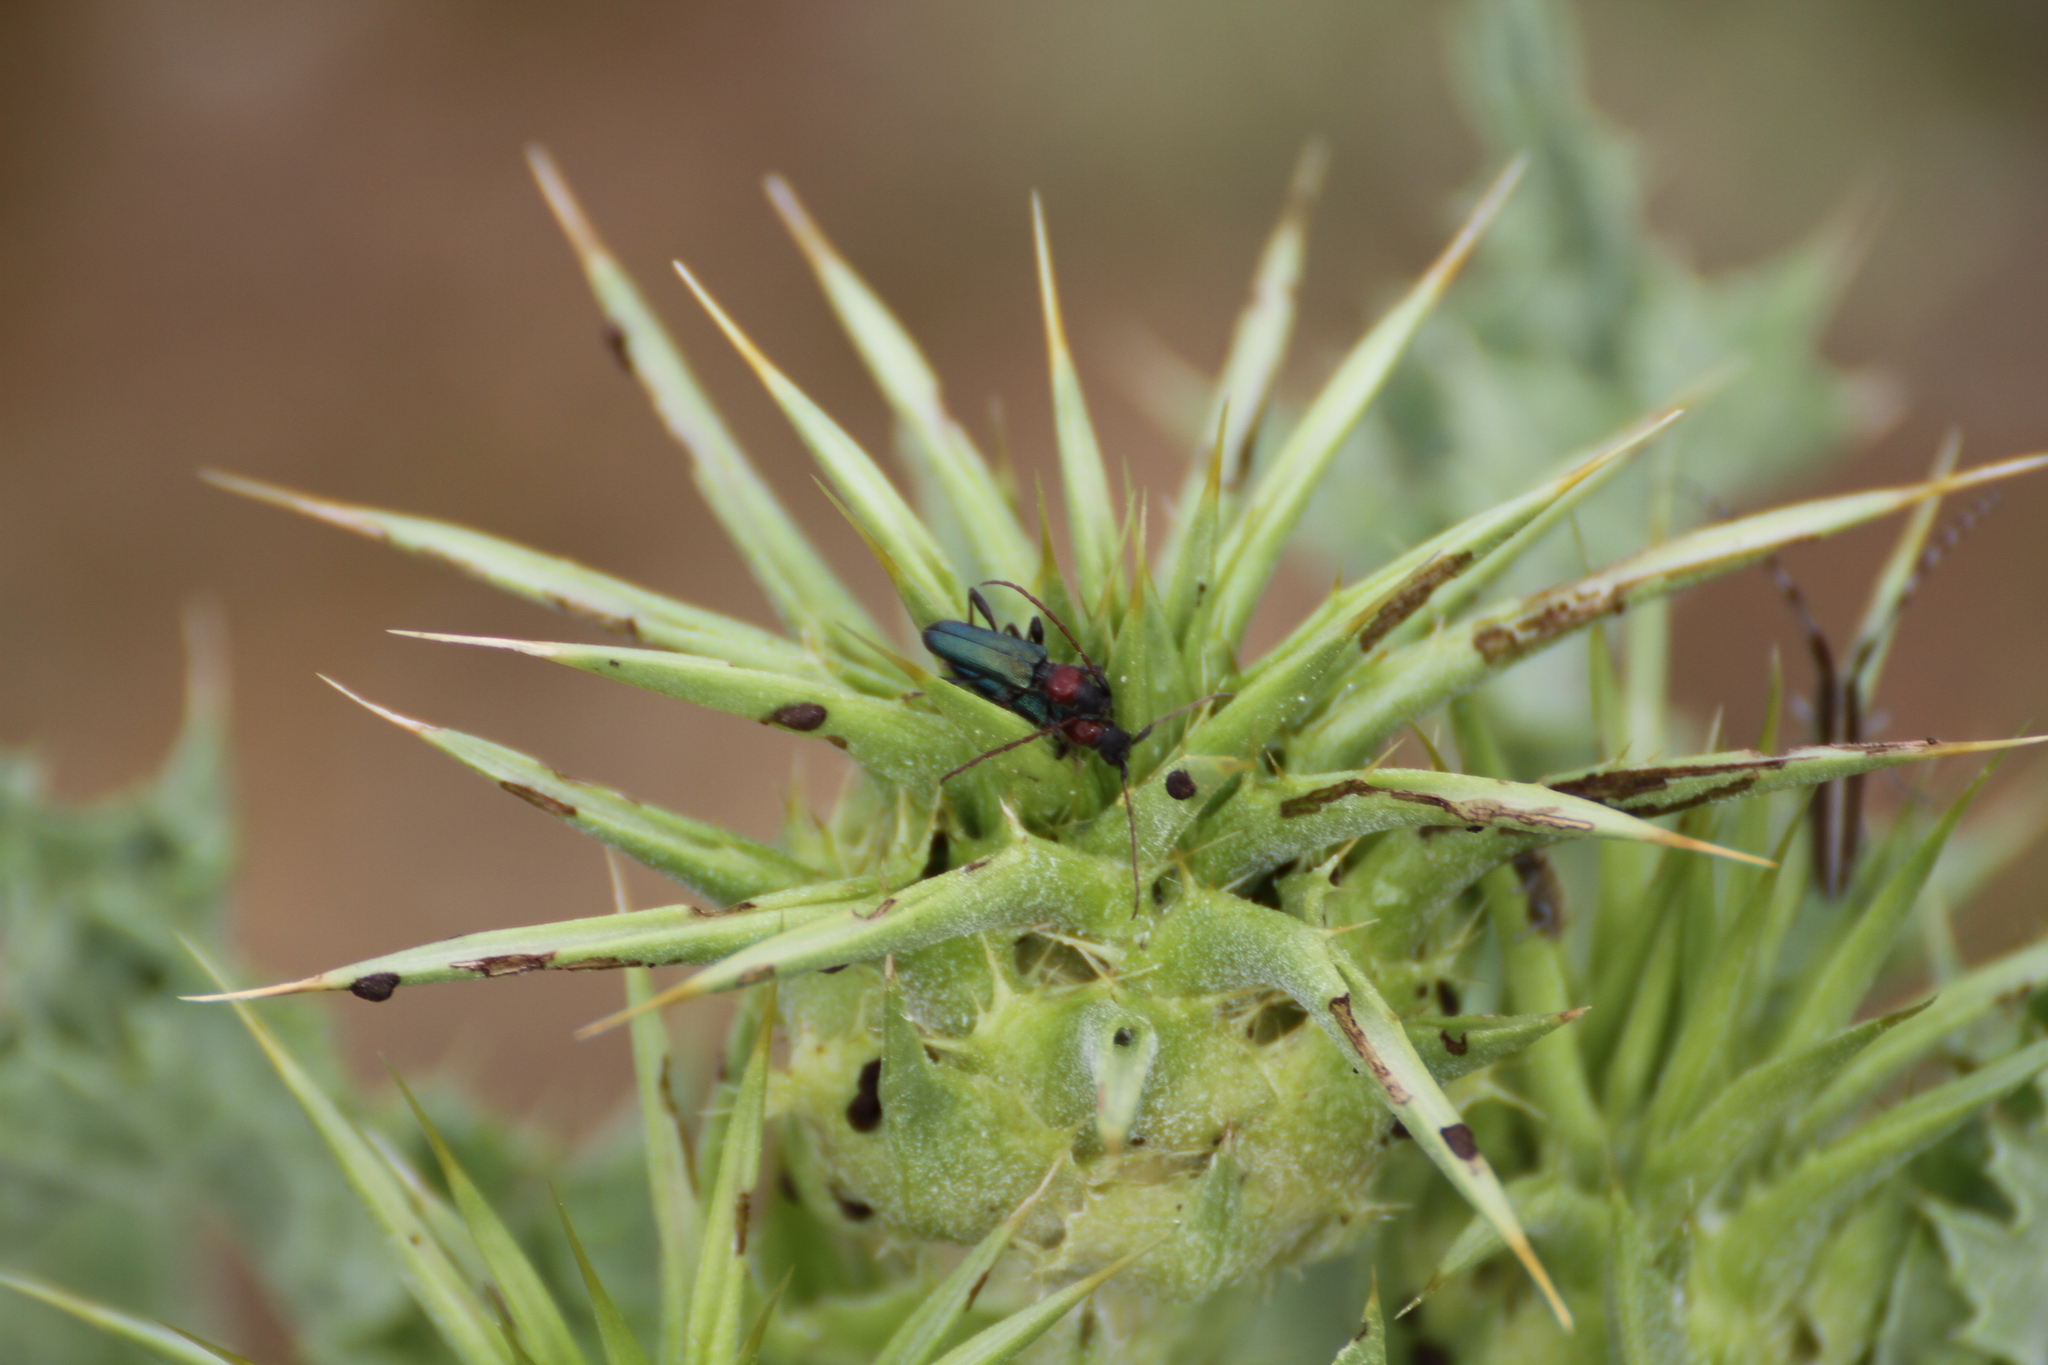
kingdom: Animalia
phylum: Arthropoda
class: Insecta
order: Coleoptera
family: Cerambycidae
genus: Certallum
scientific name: Certallum ebulinum
